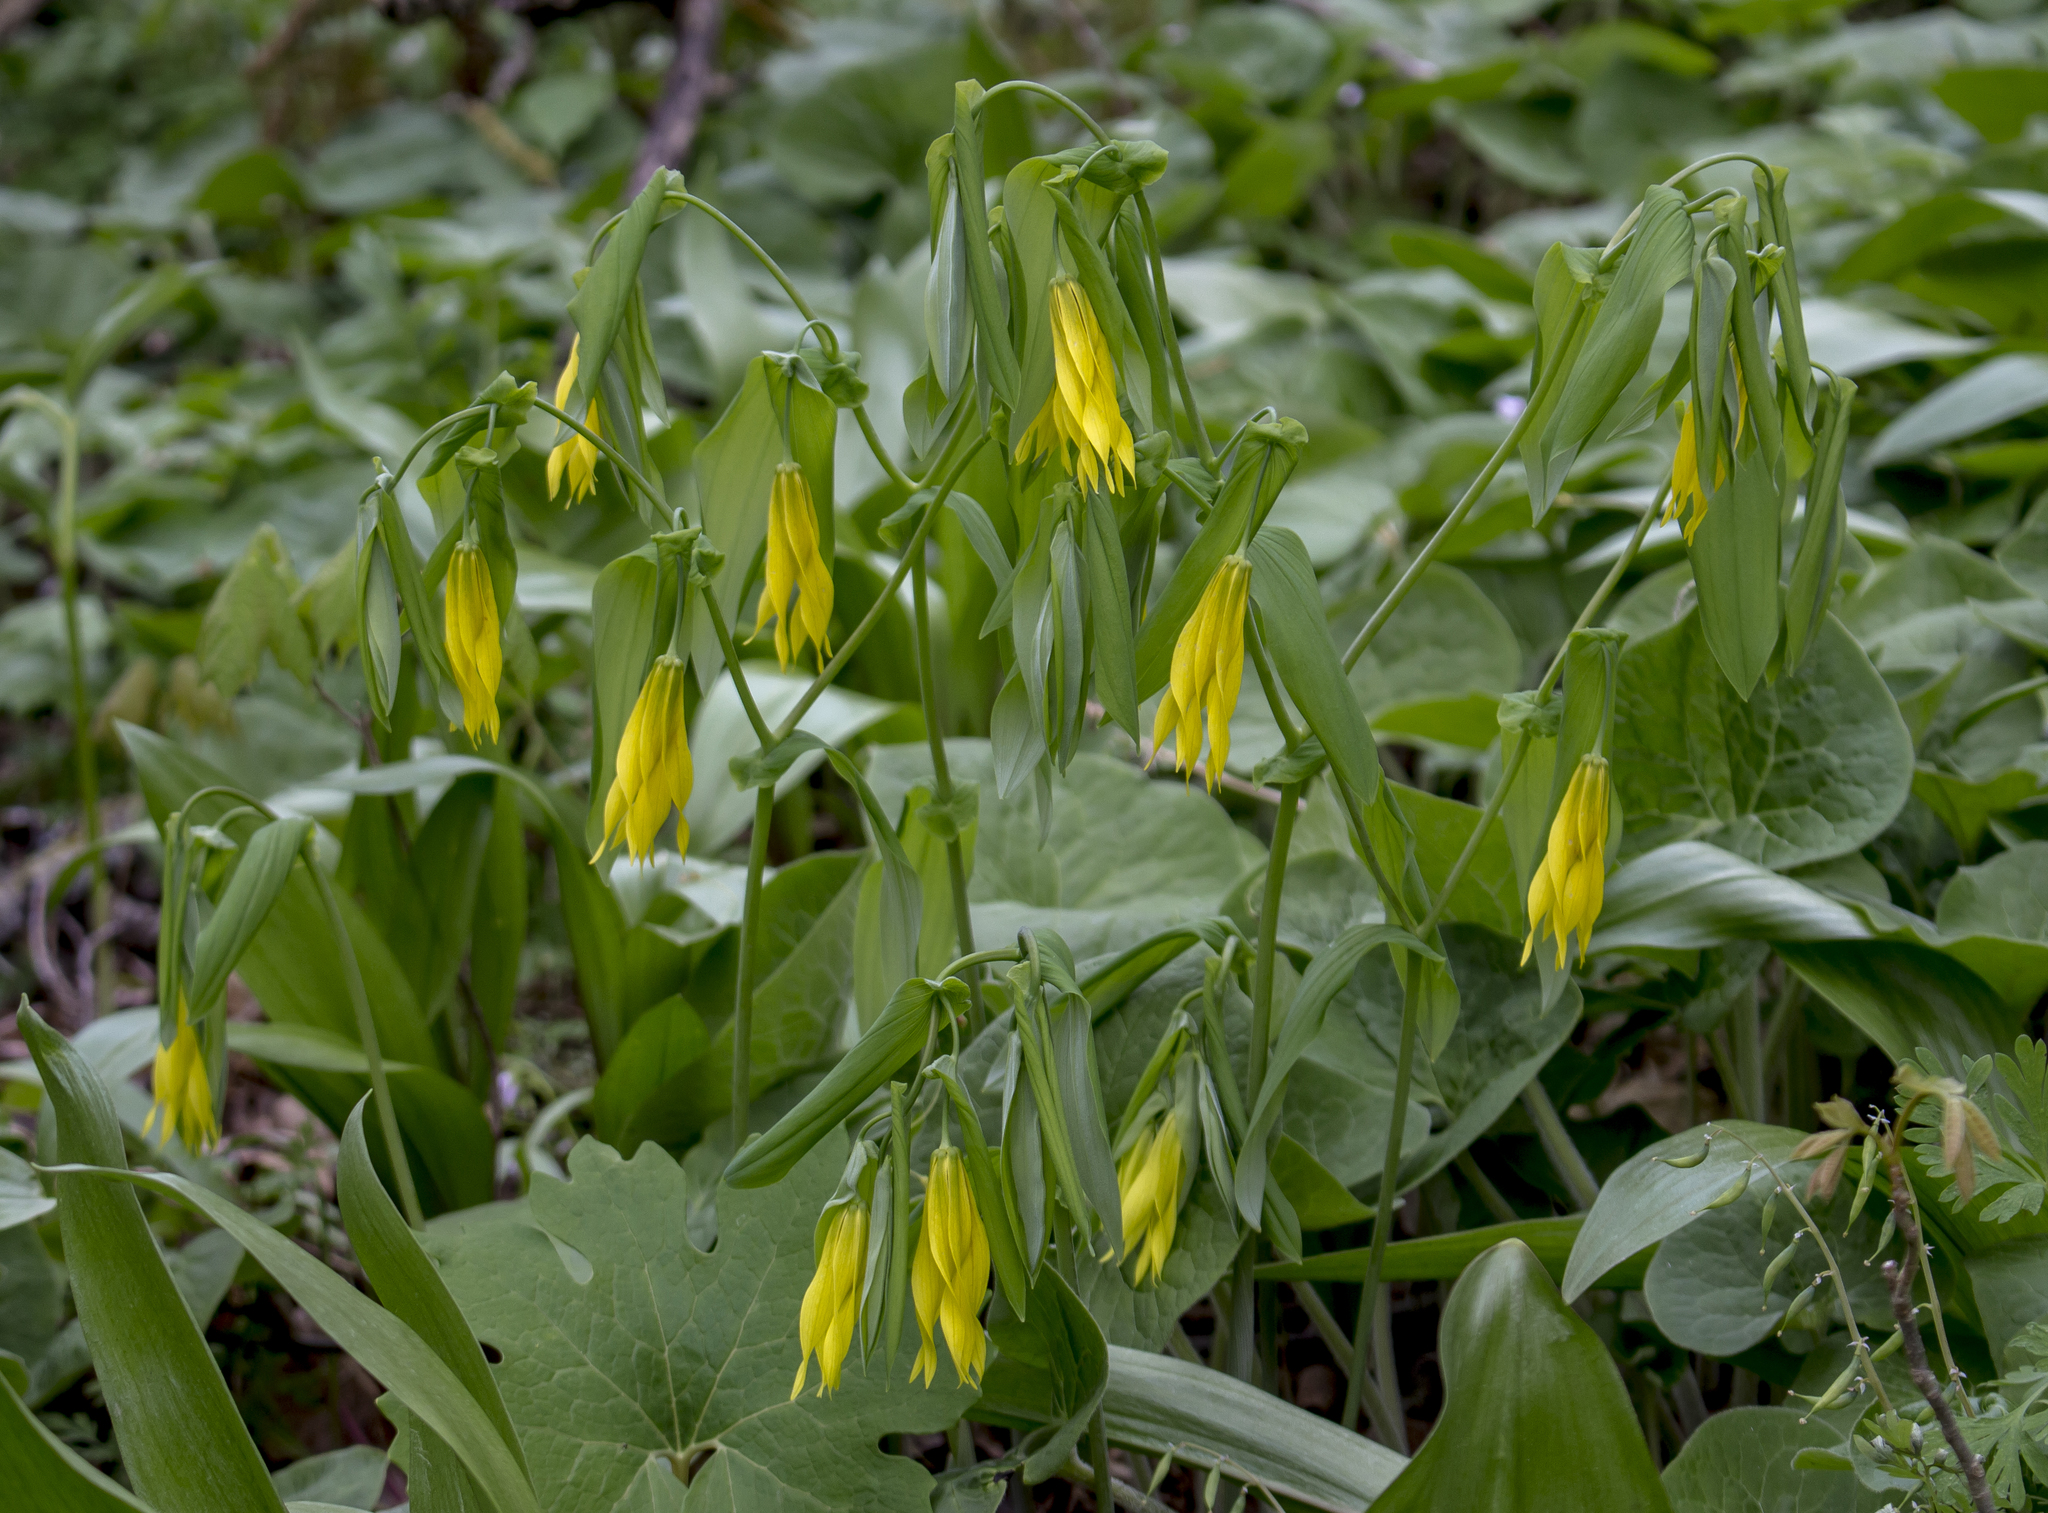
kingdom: Plantae
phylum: Tracheophyta
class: Liliopsida
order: Liliales
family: Colchicaceae
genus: Uvularia
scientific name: Uvularia grandiflora
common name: Bellwort
